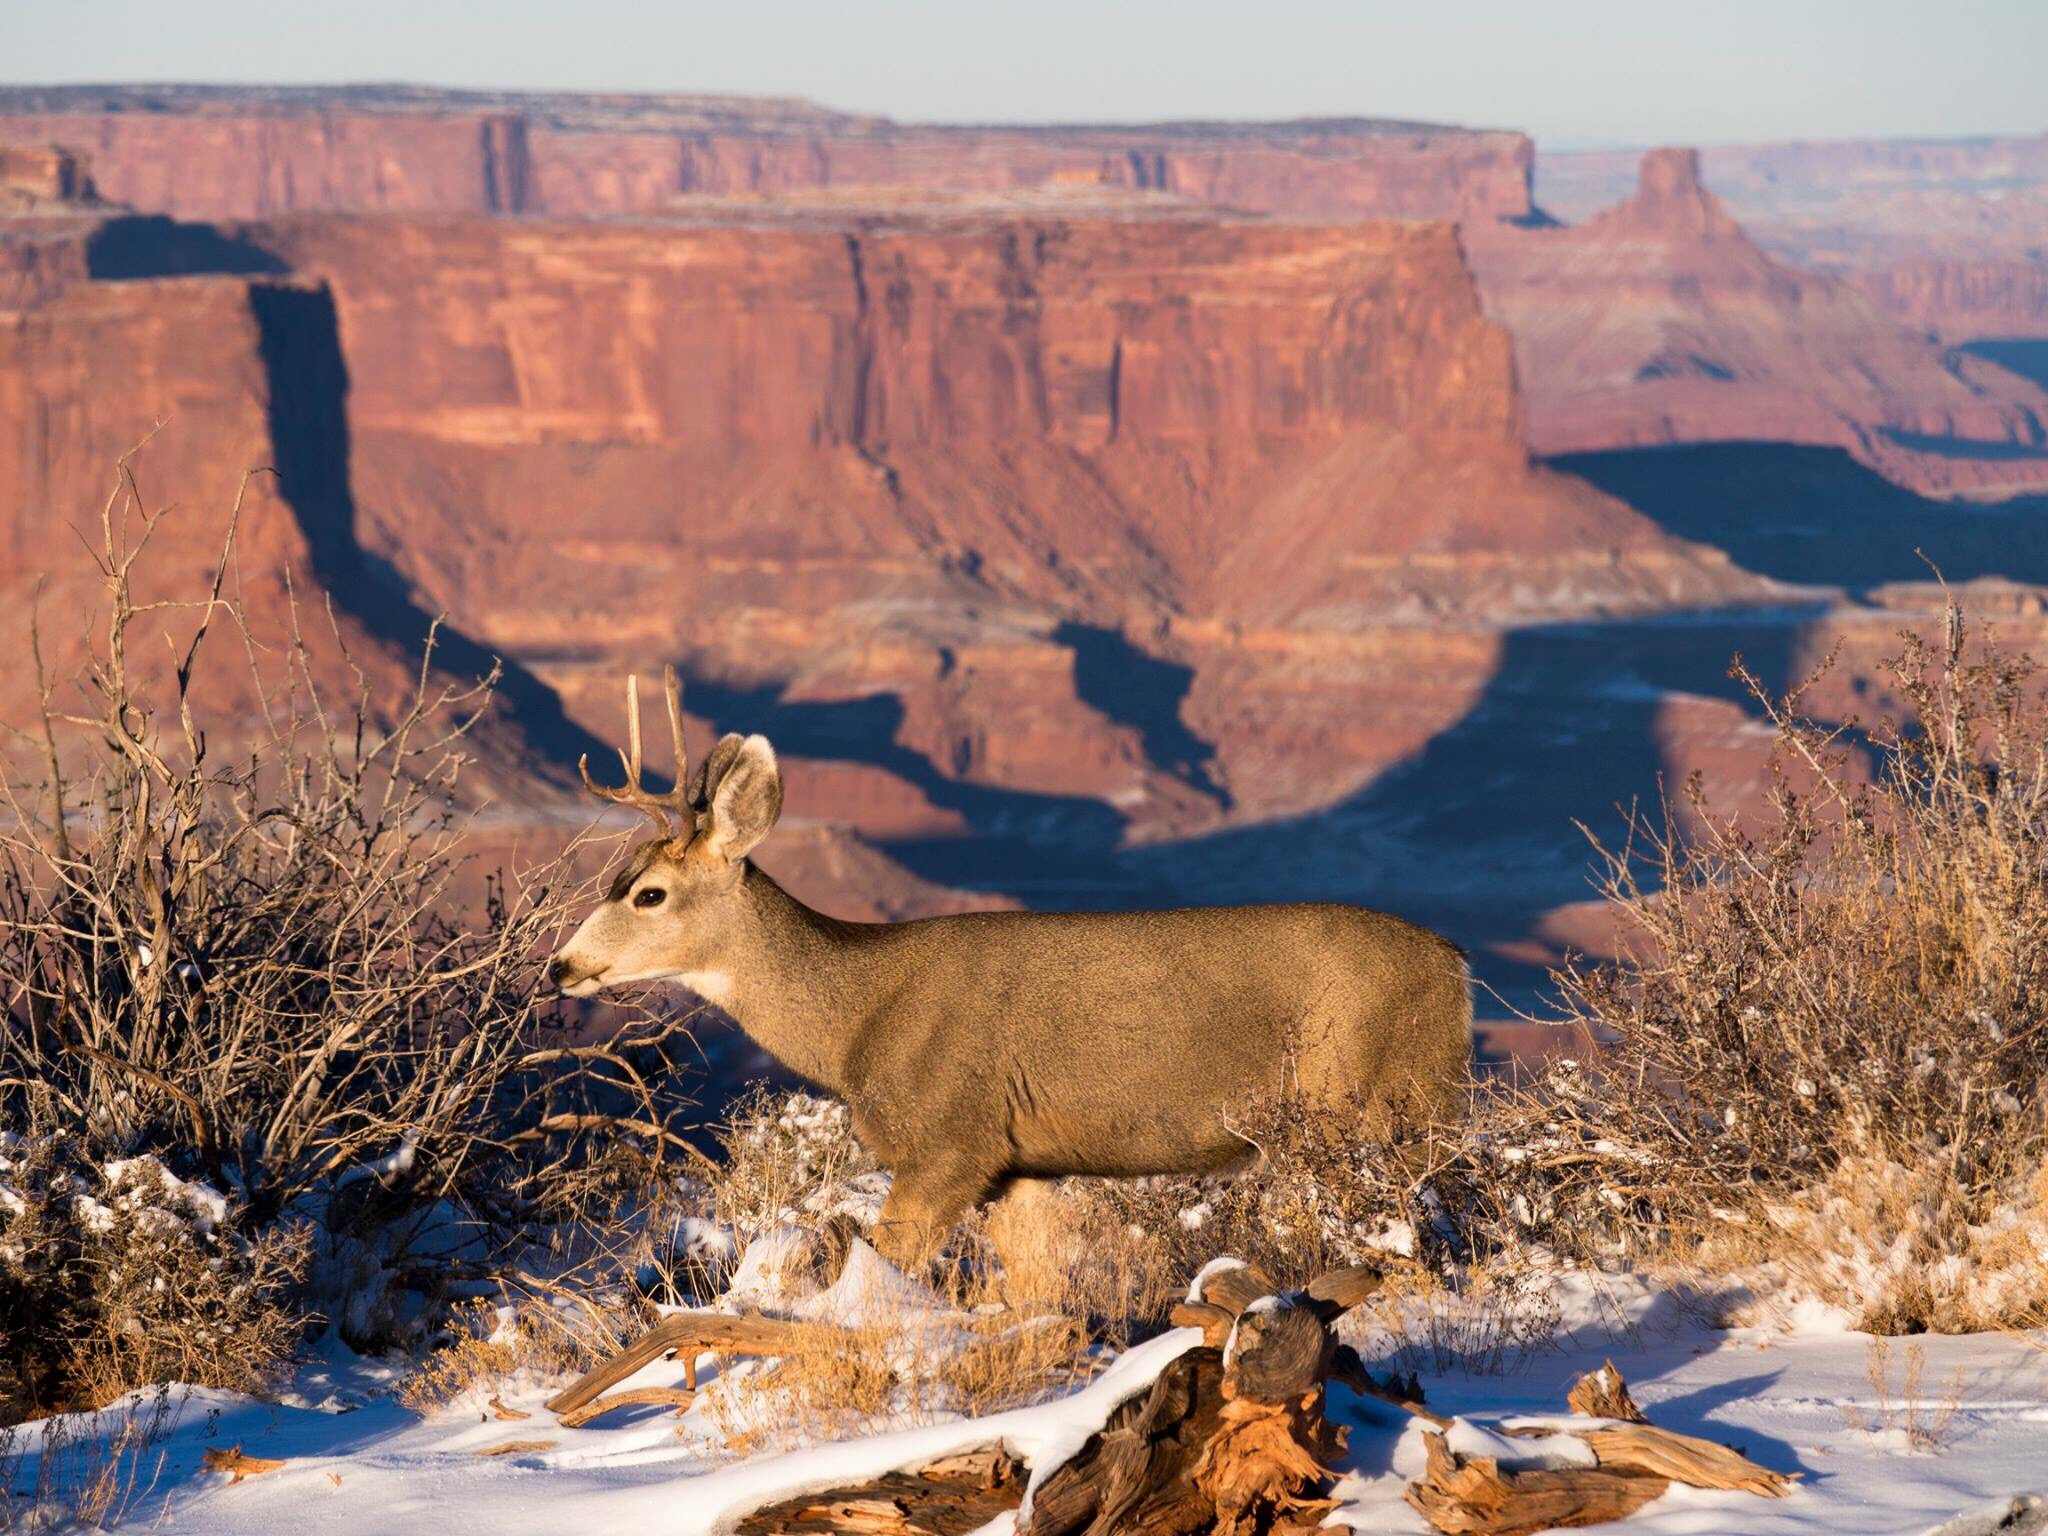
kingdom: Animalia
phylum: Chordata
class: Mammalia
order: Artiodactyla
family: Cervidae
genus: Odocoileus
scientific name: Odocoileus hemionus
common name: Mule deer
